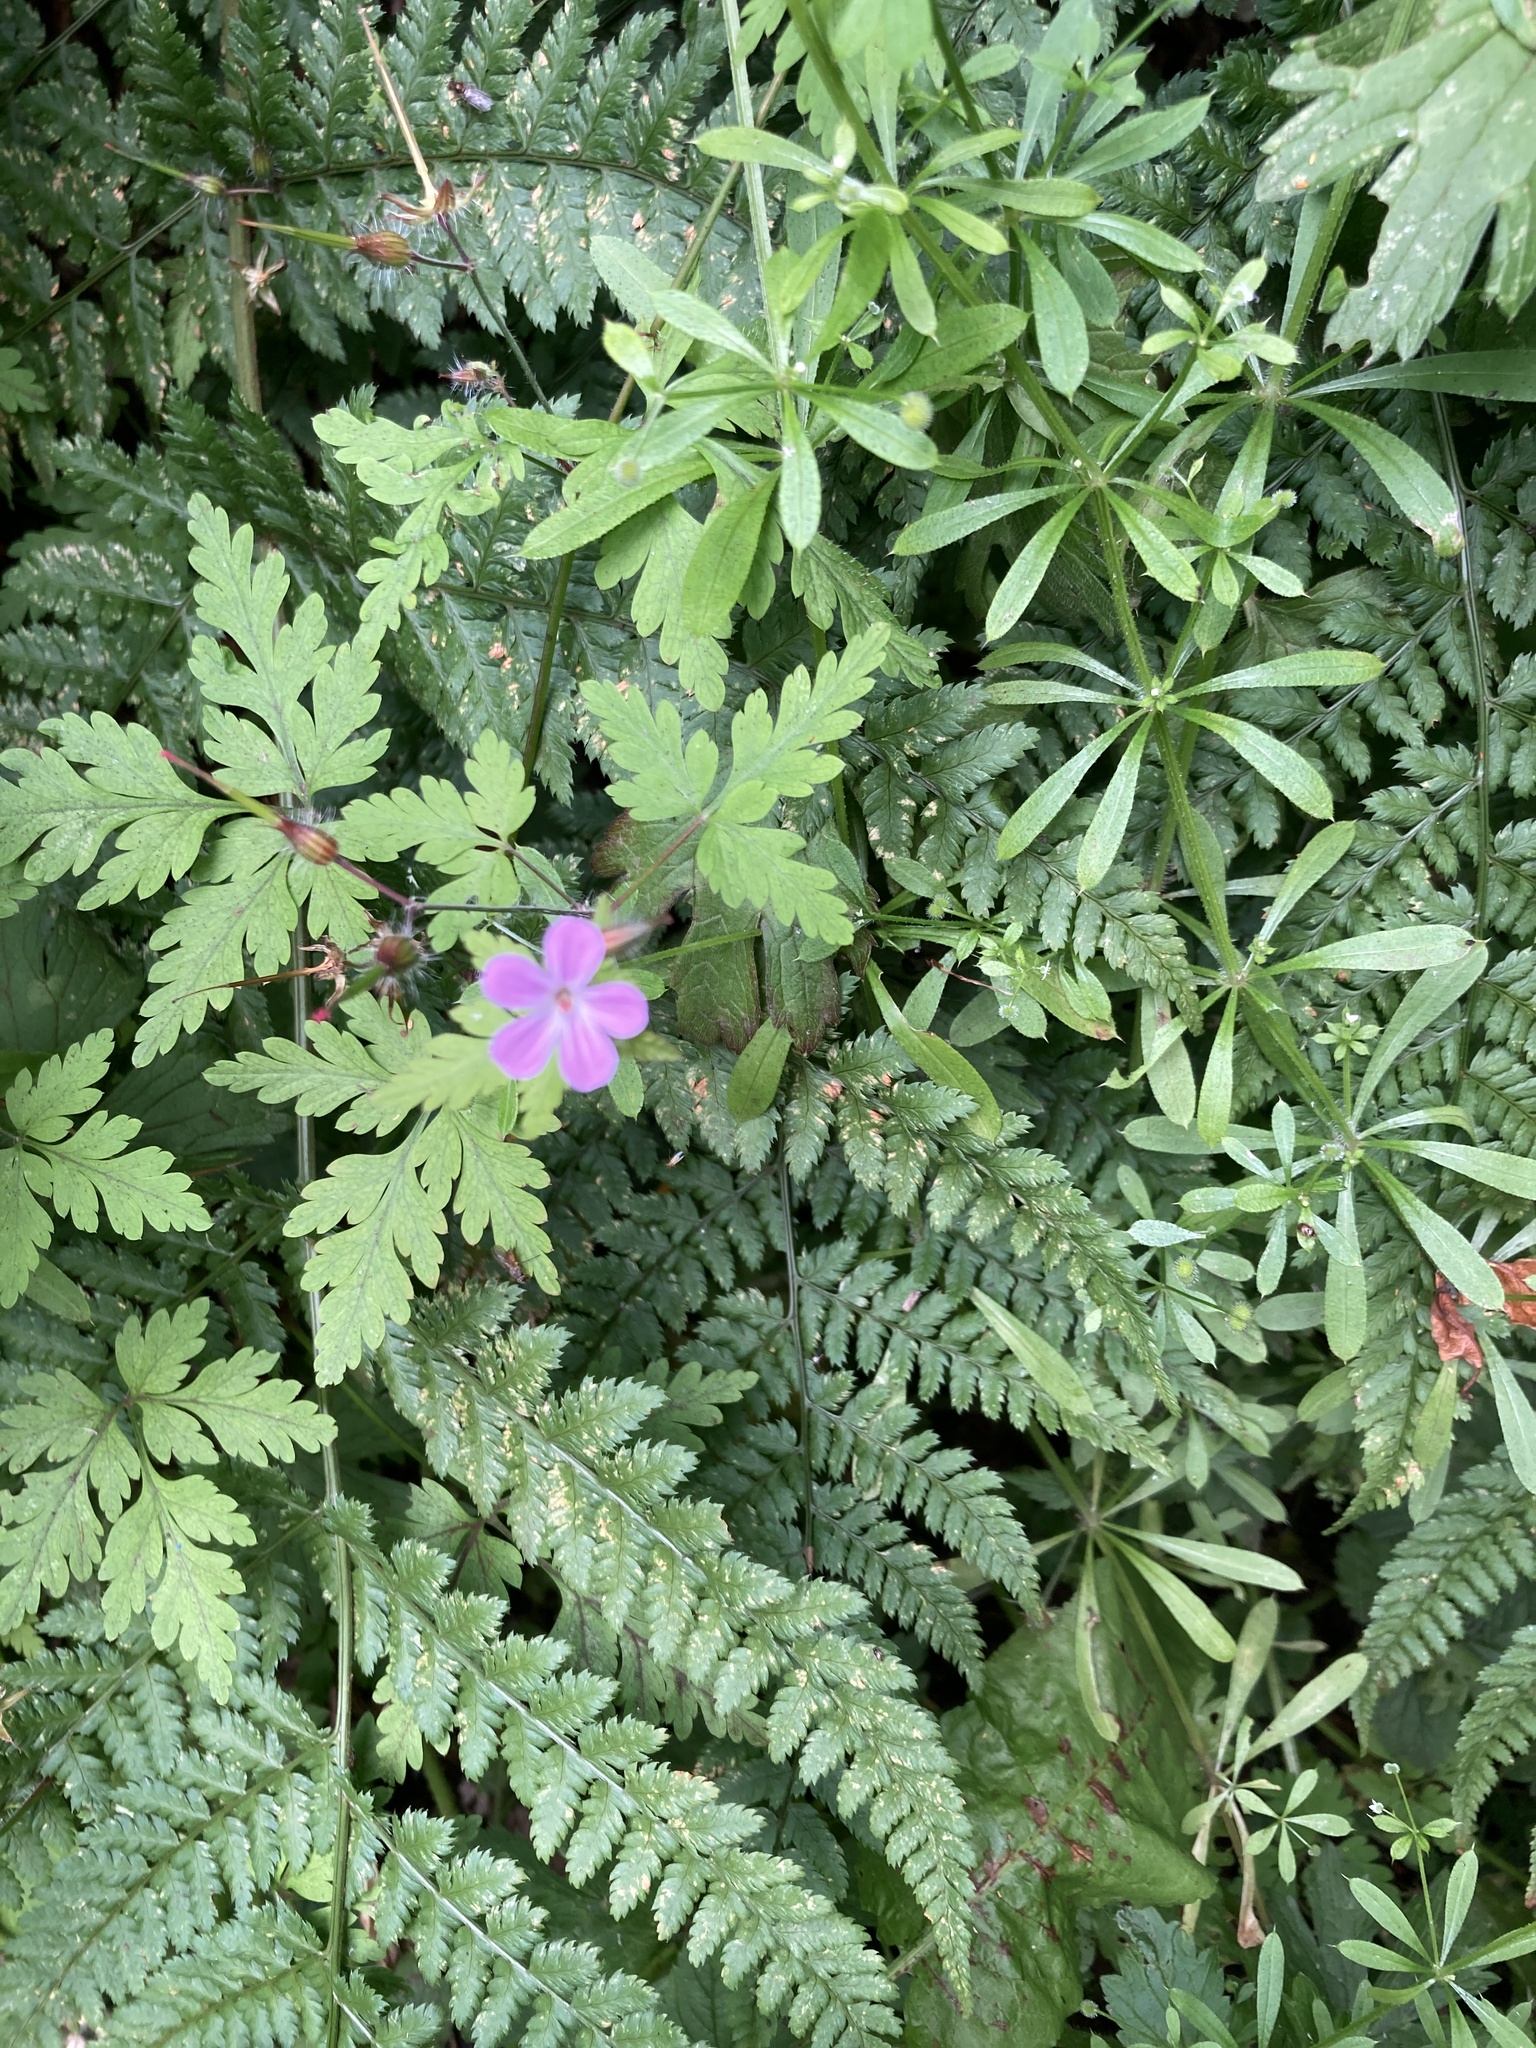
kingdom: Plantae
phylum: Tracheophyta
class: Magnoliopsida
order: Geraniales
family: Geraniaceae
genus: Geranium
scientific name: Geranium robertianum
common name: Herb-robert
